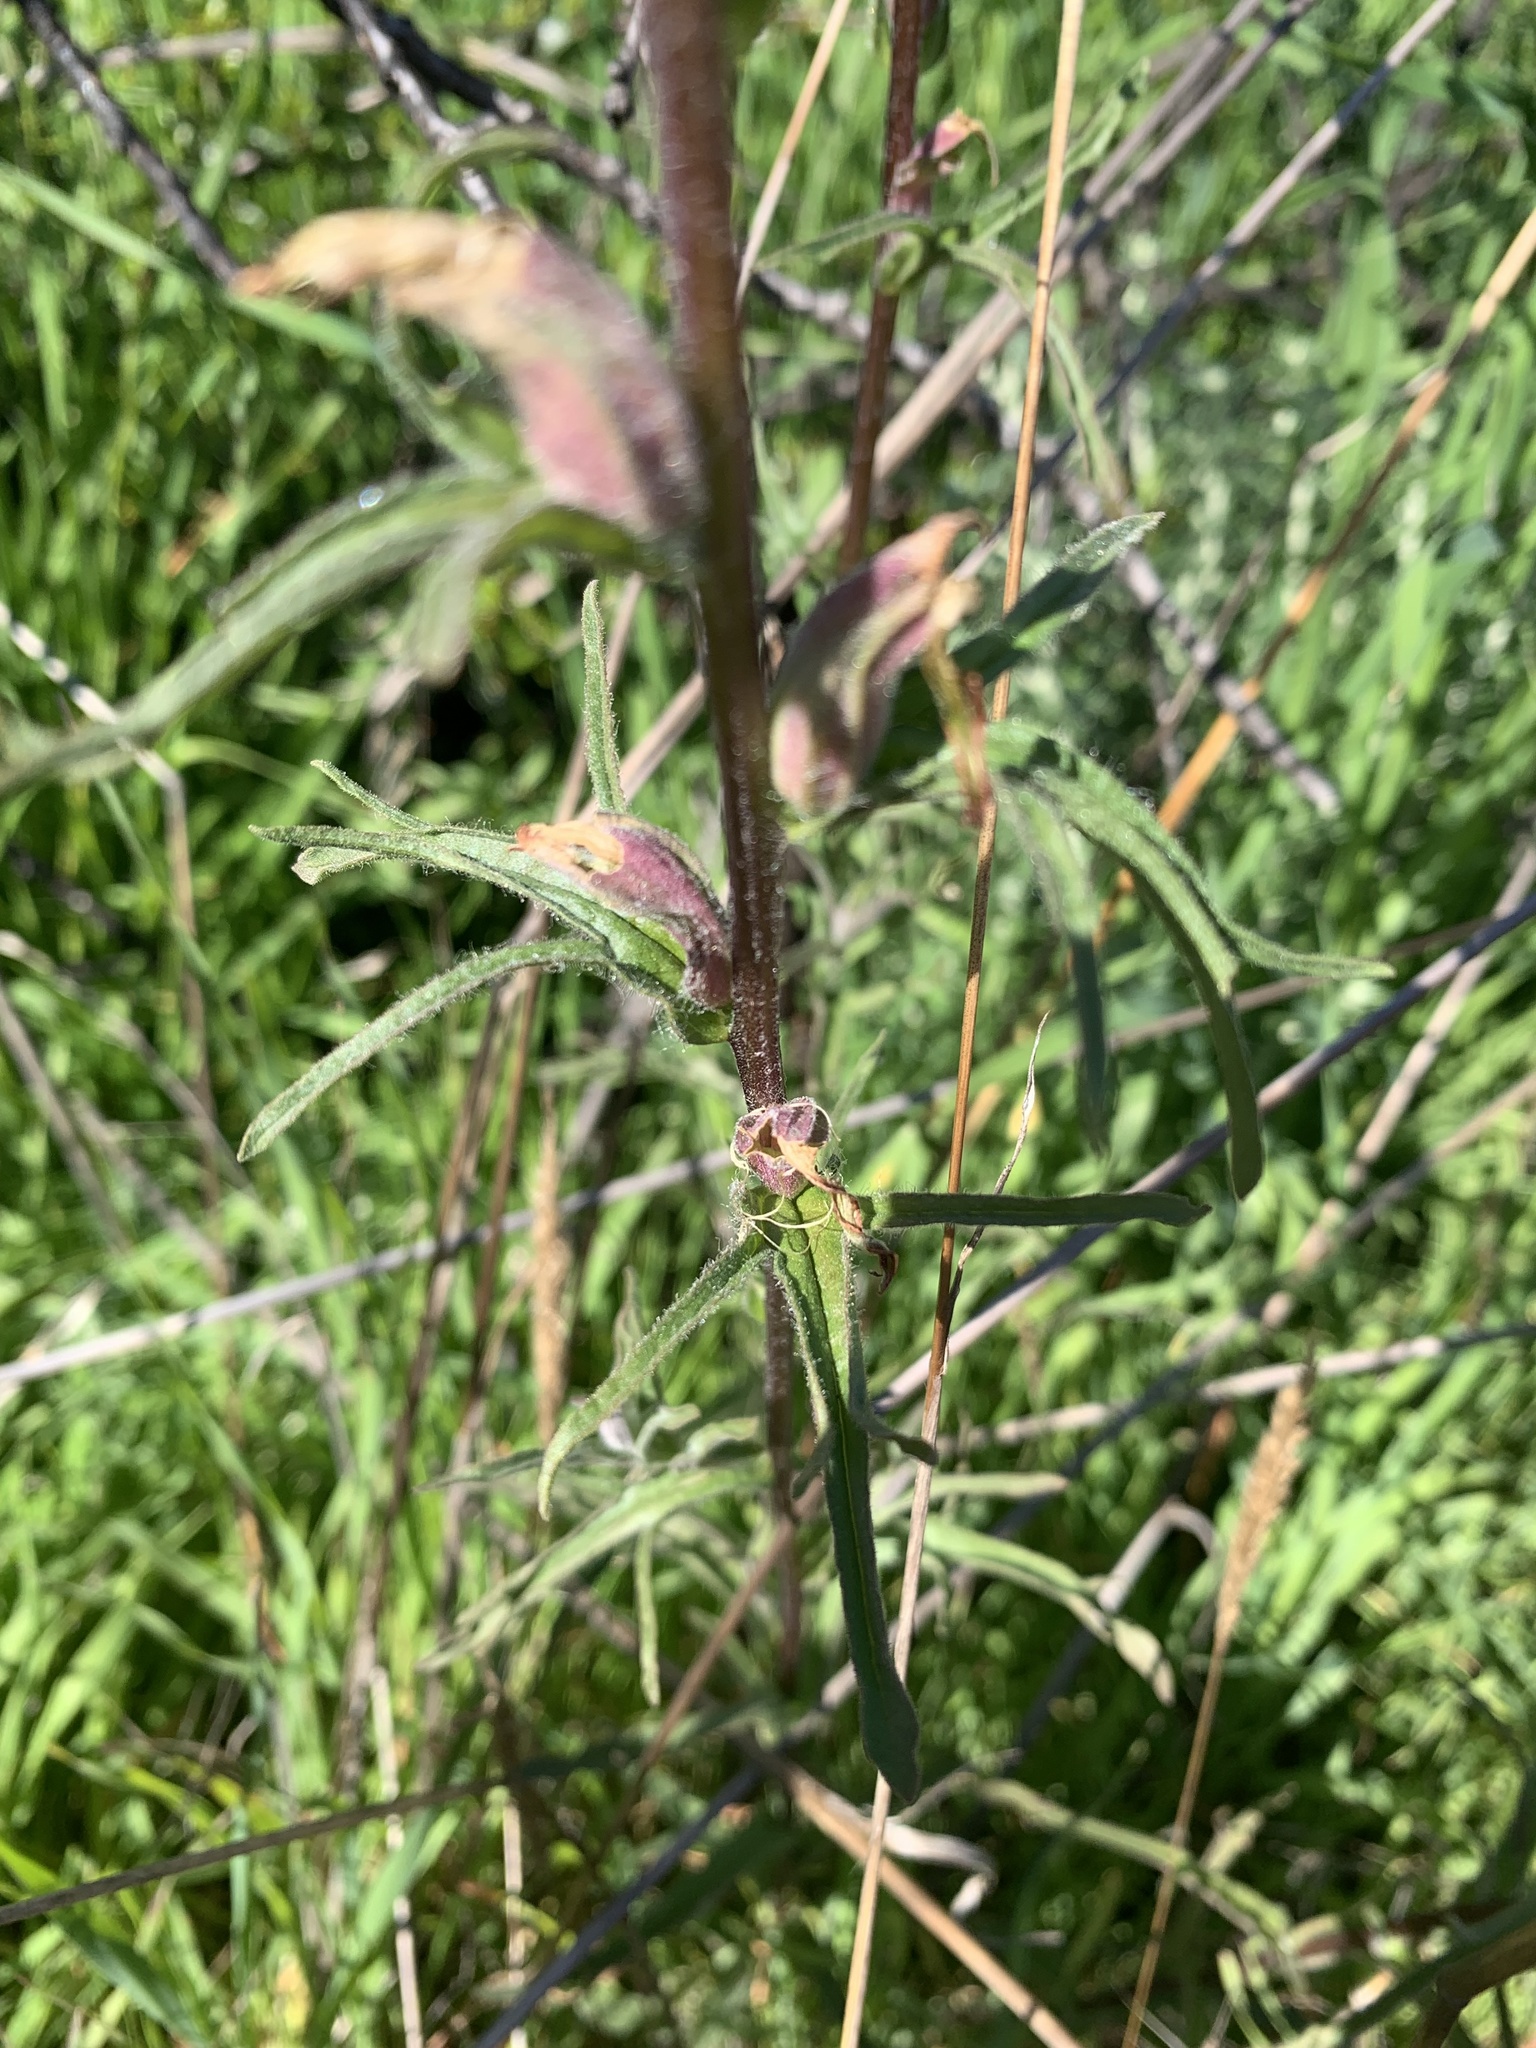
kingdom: Plantae
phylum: Tracheophyta
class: Magnoliopsida
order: Lamiales
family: Orobanchaceae
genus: Castilleja
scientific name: Castilleja affinis
